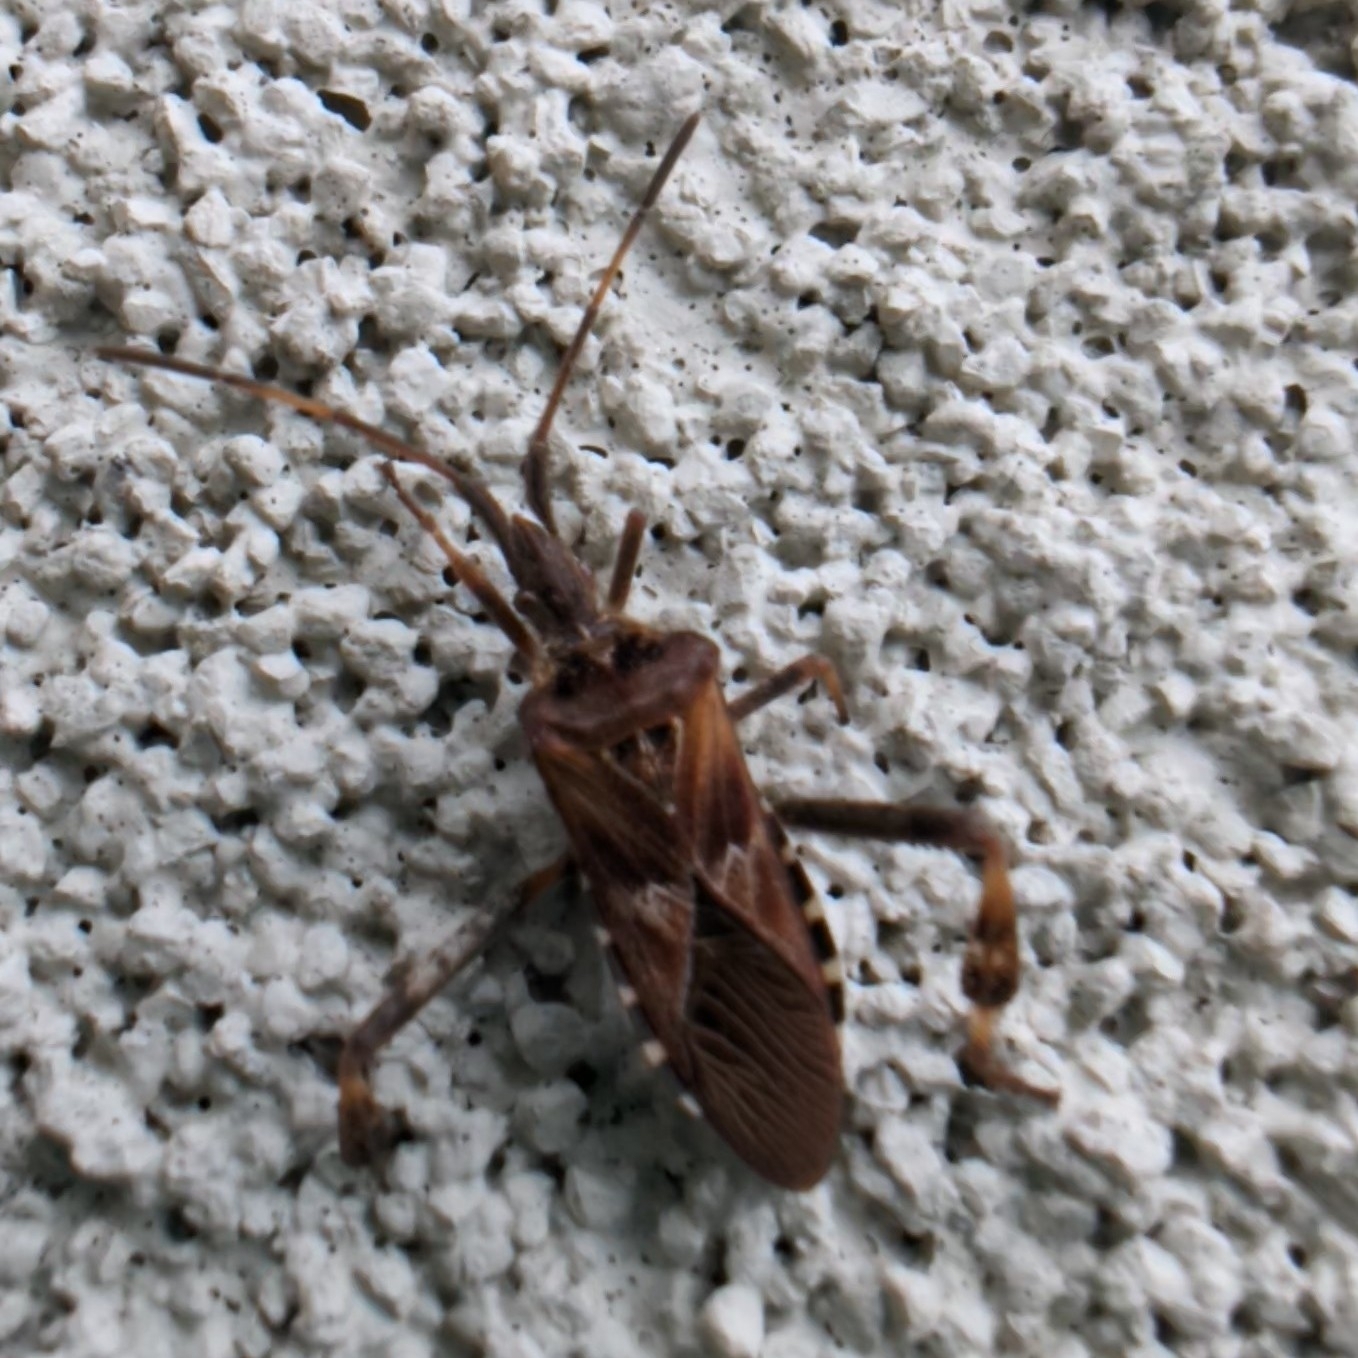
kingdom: Animalia
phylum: Arthropoda
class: Insecta
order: Hemiptera
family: Coreidae
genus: Leptoglossus
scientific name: Leptoglossus occidentalis
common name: Western conifer-seed bug
